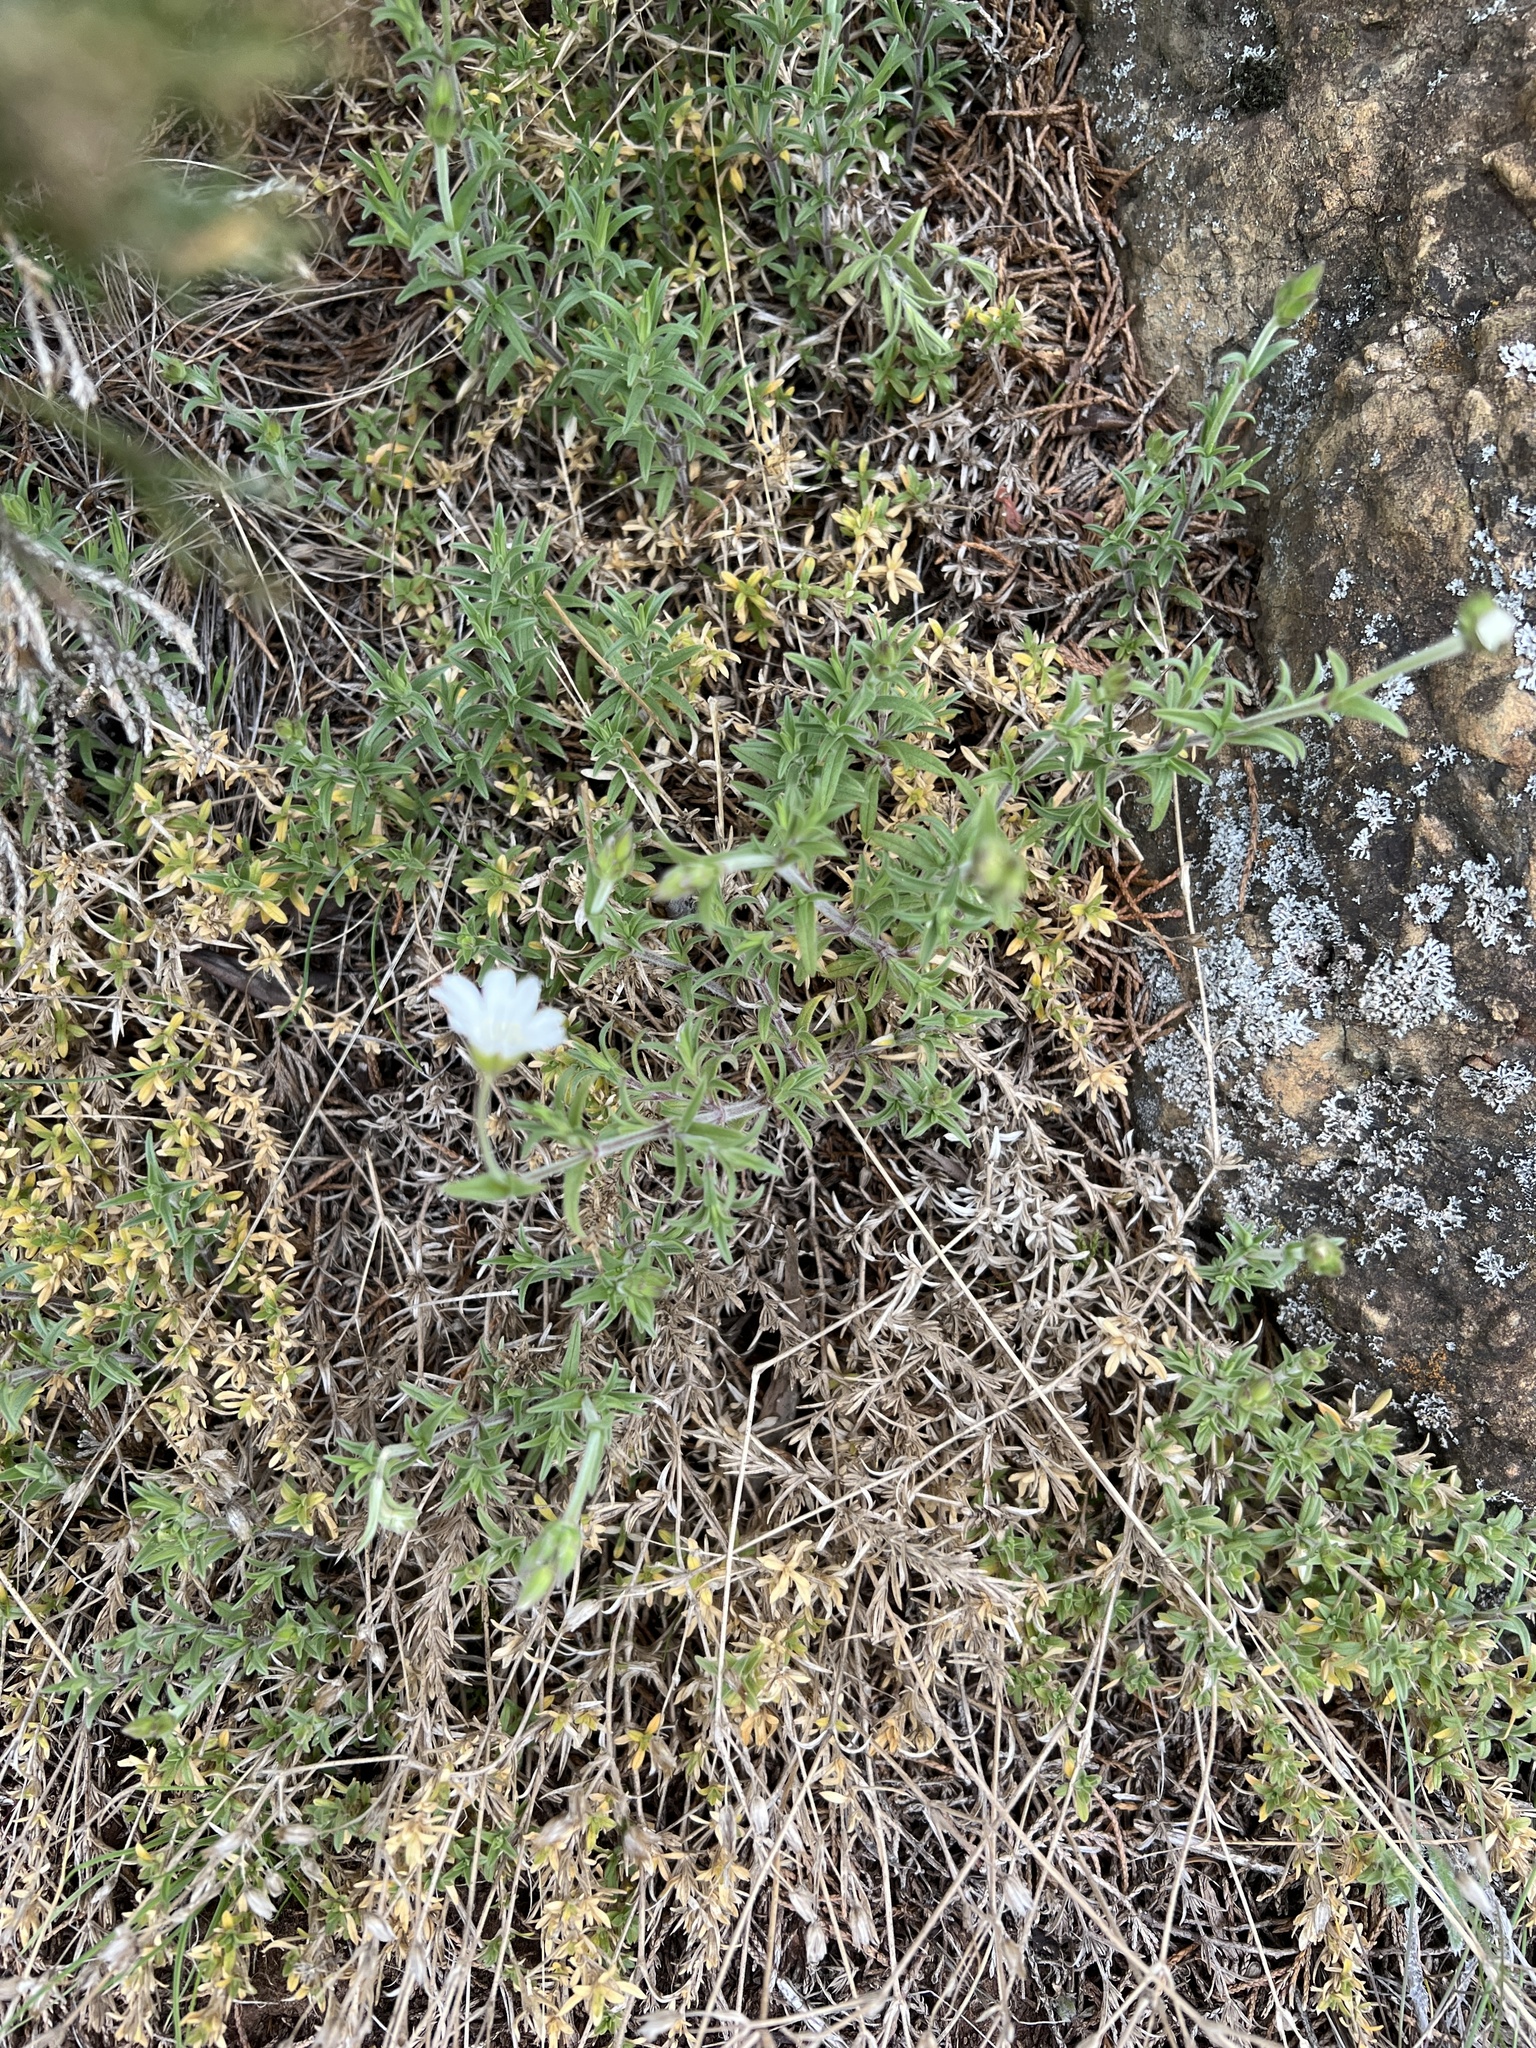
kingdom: Plantae
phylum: Tracheophyta
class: Magnoliopsida
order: Caryophyllales
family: Caryophyllaceae
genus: Cerastium
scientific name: Cerastium arvense
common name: Field mouse-ear
